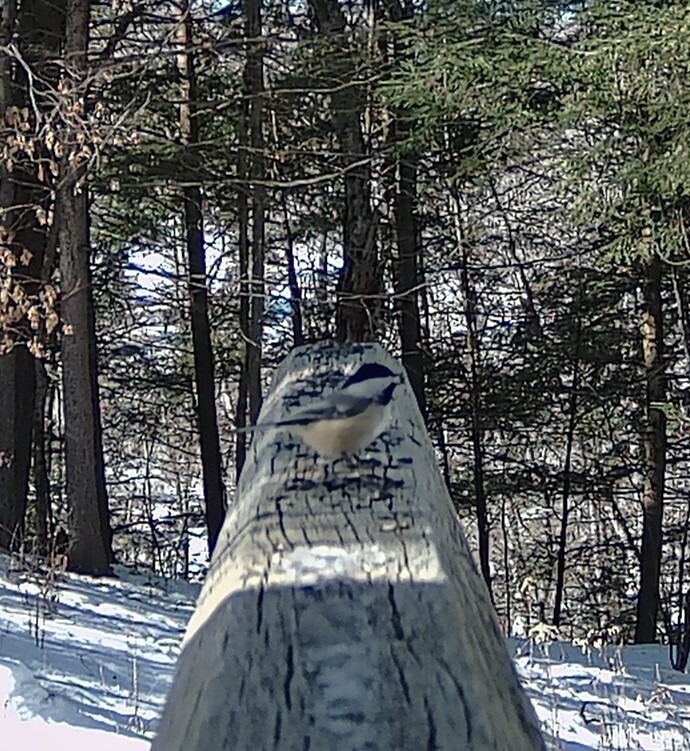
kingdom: Animalia
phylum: Chordata
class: Aves
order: Passeriformes
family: Paridae
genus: Poecile
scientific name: Poecile atricapillus
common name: Black-capped chickadee
